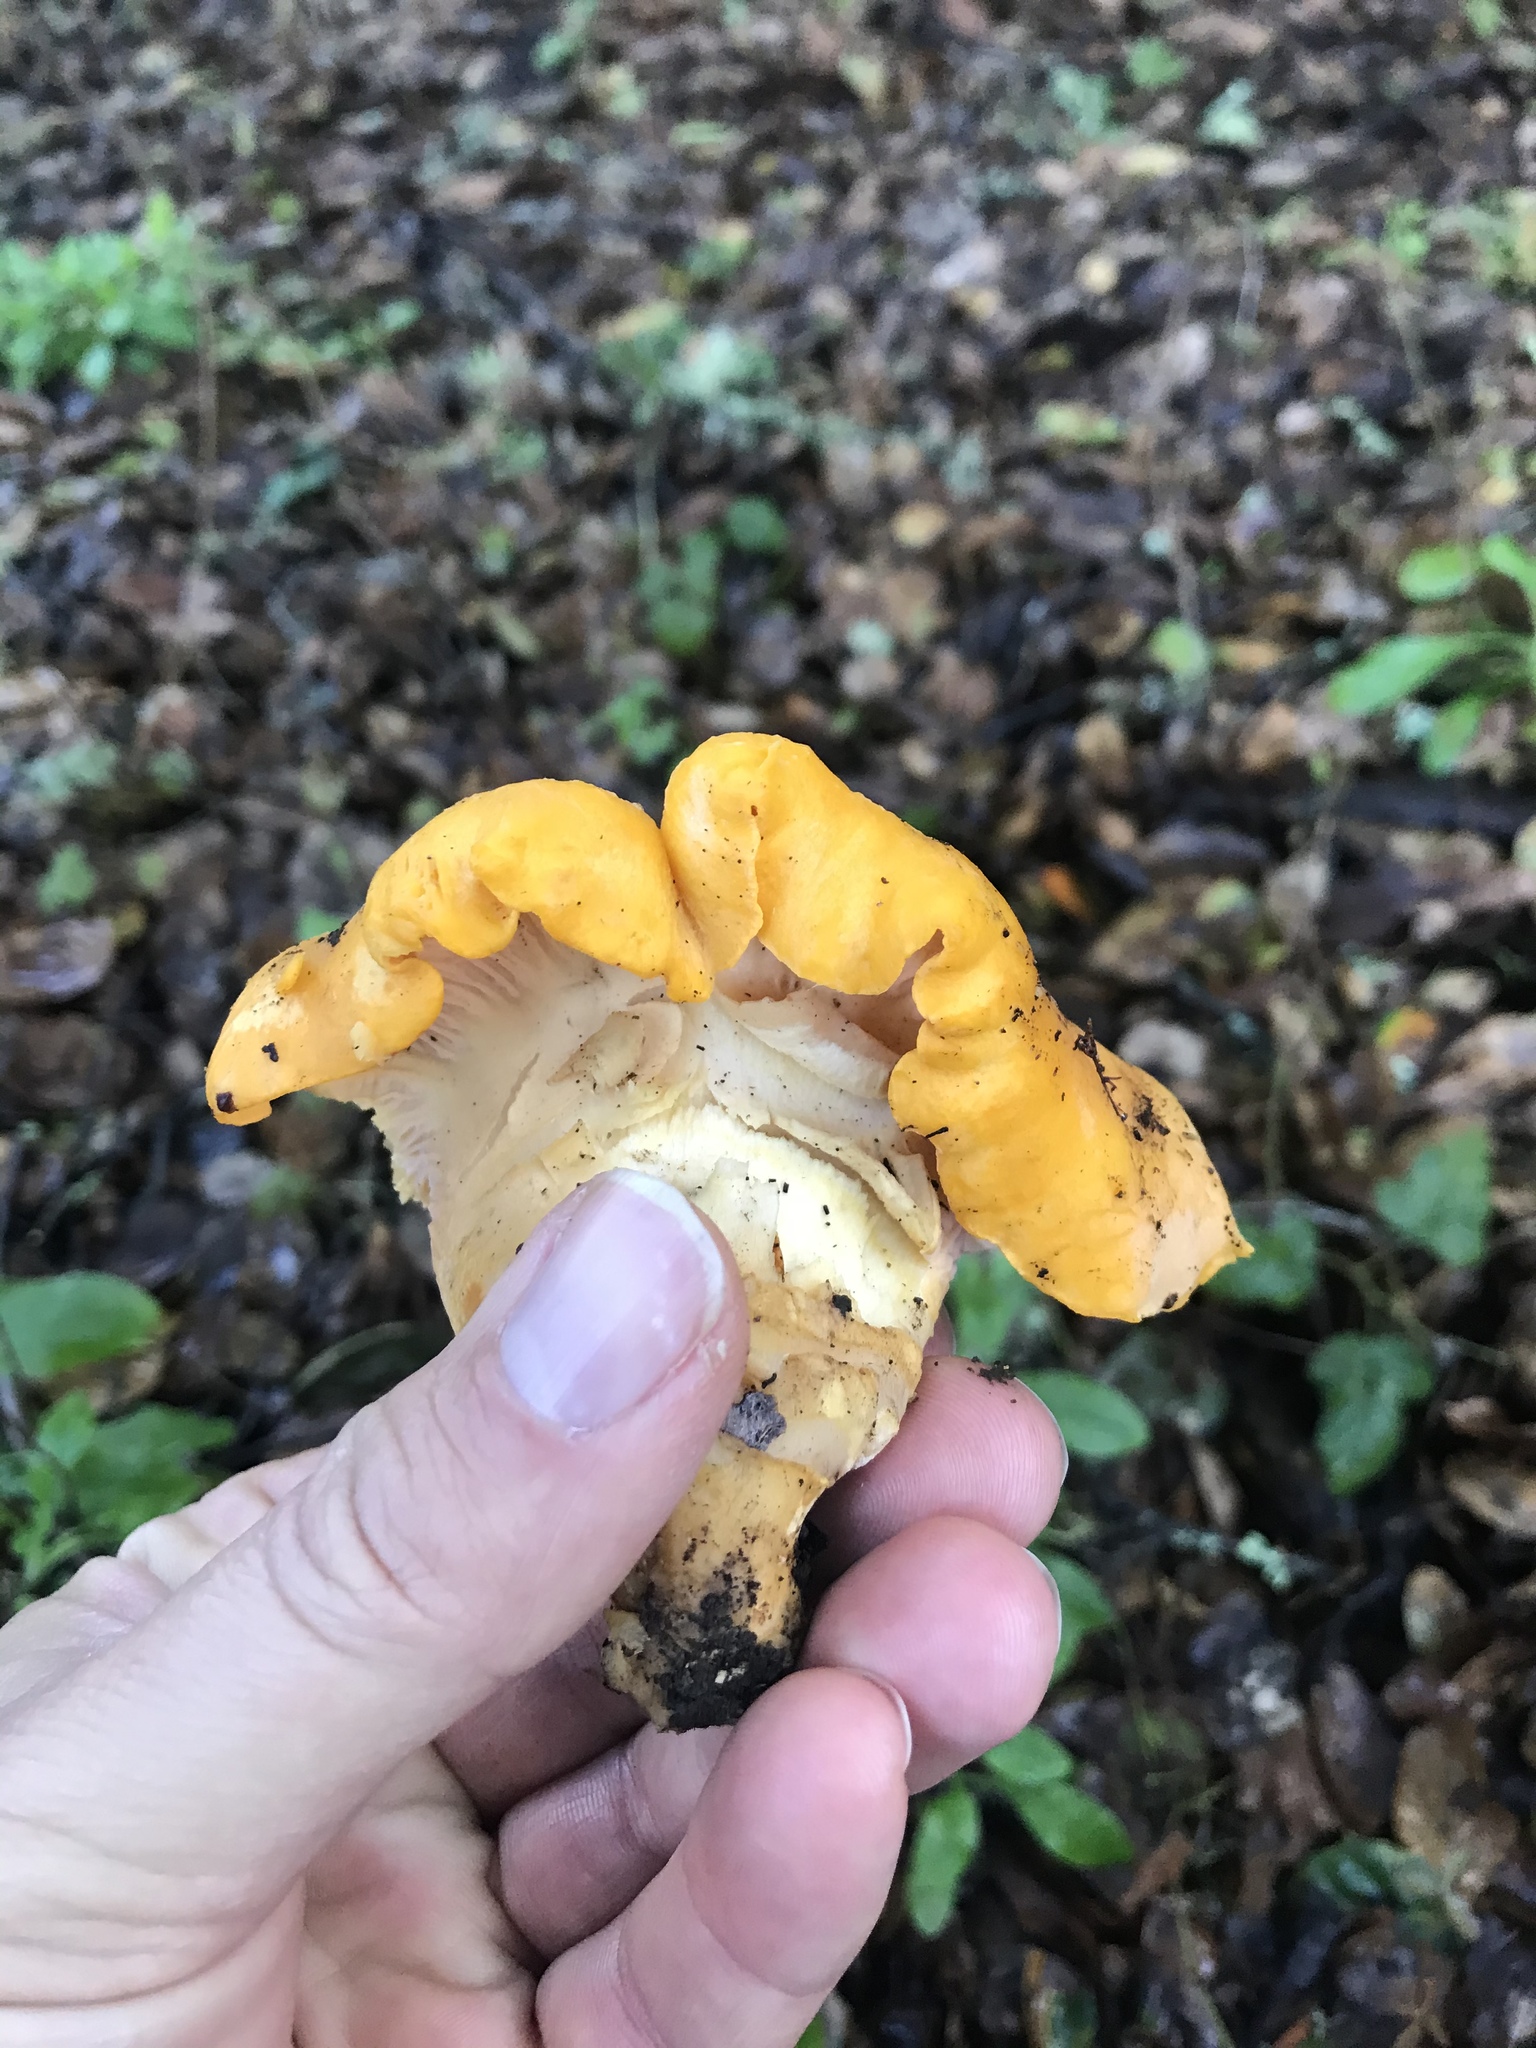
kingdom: Fungi
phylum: Basidiomycota
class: Agaricomycetes
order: Cantharellales
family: Hydnaceae
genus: Cantharellus
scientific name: Cantharellus californicus
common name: California golden chanterelle
